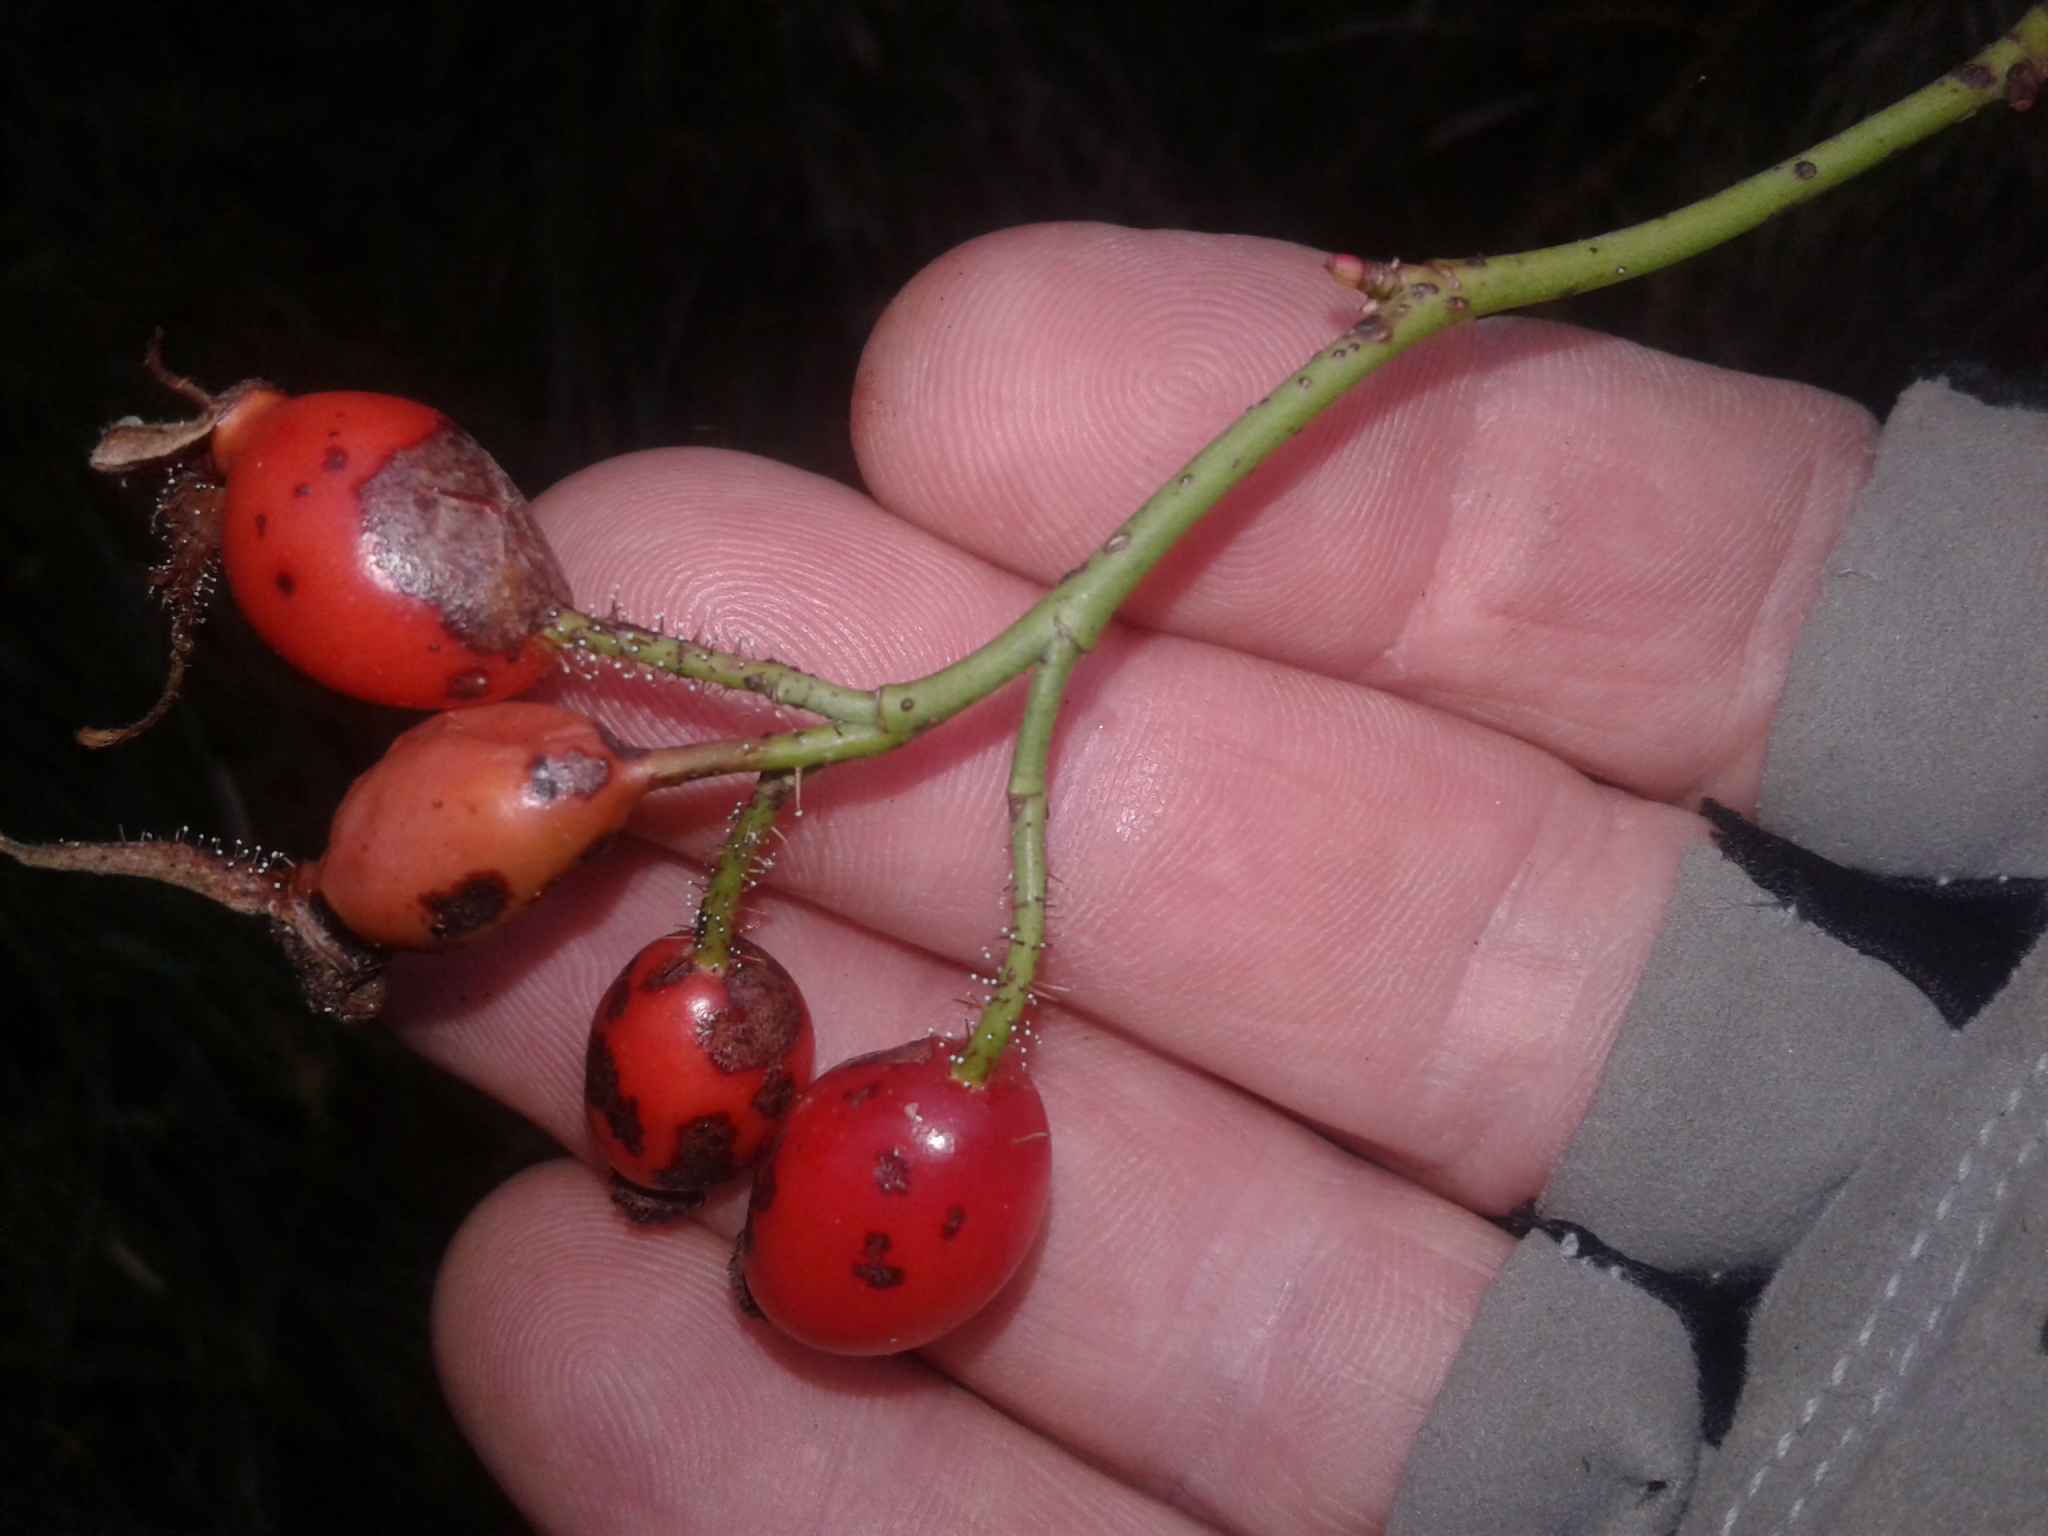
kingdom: Plantae
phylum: Tracheophyta
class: Magnoliopsida
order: Rosales
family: Rosaceae
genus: Rosa
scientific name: Rosa rubiginosa
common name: Sweet-briar
